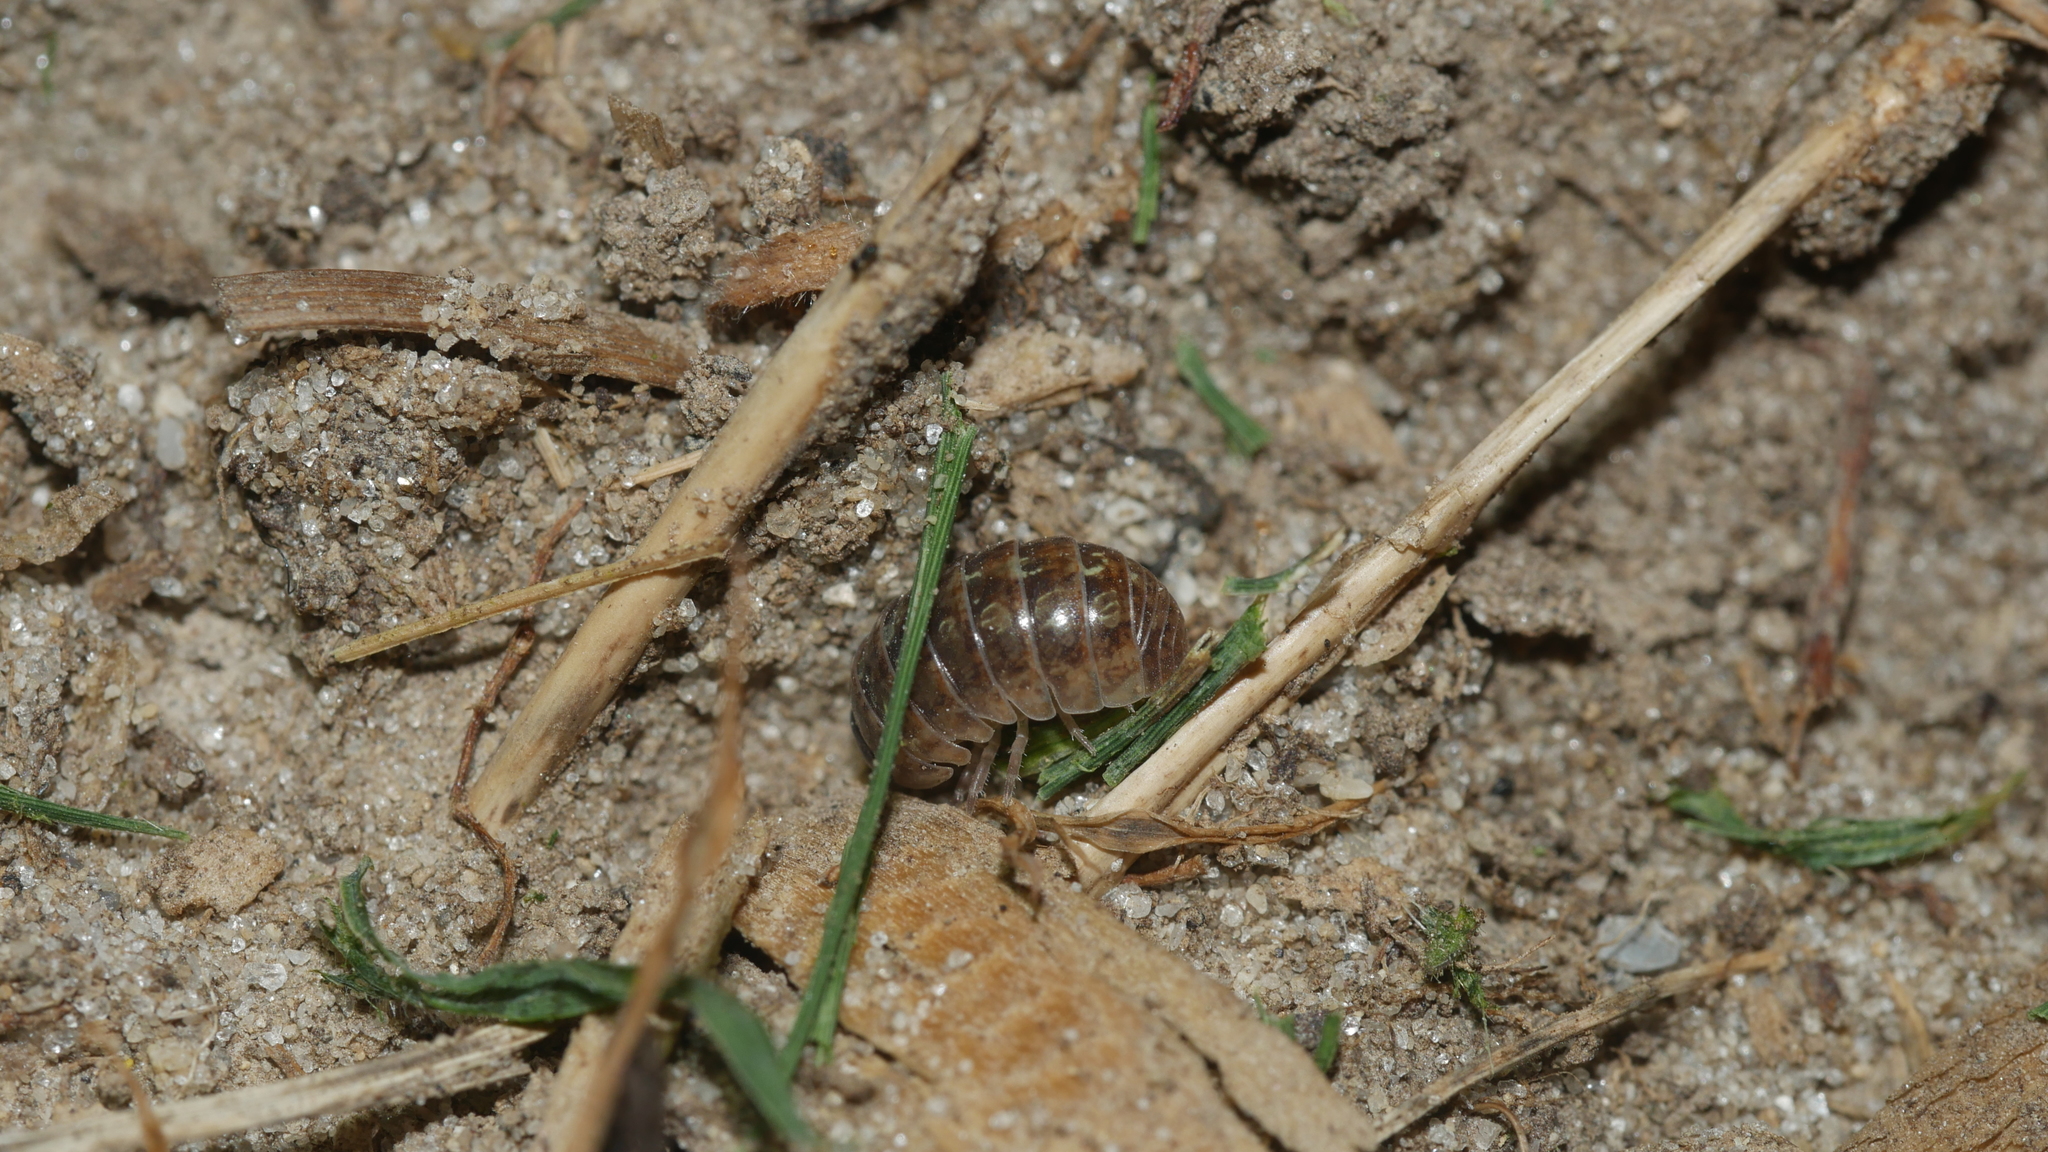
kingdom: Animalia
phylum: Arthropoda
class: Malacostraca
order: Isopoda
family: Armadillidiidae
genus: Armadillidium
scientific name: Armadillidium vulgare
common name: Common pill woodlouse
